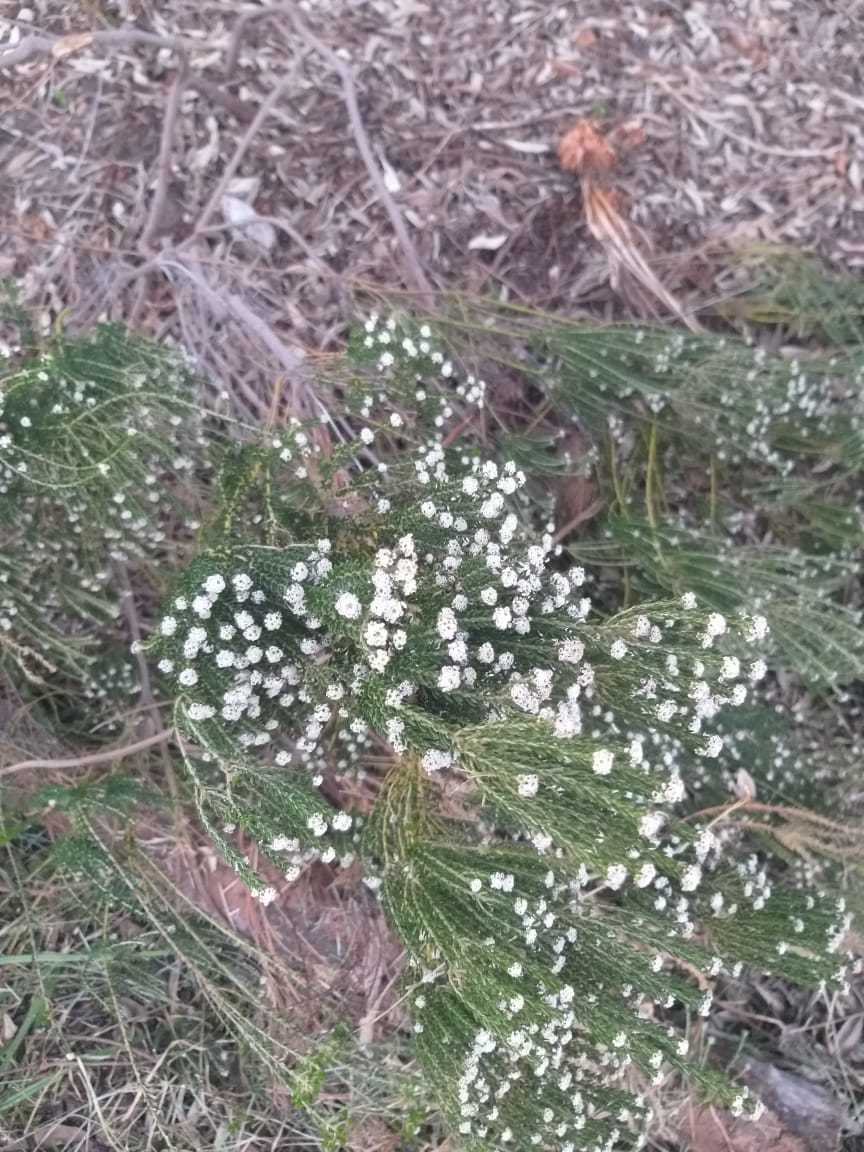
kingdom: Plantae
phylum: Tracheophyta
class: Magnoliopsida
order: Rosales
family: Rhamnaceae
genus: Phylica
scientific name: Phylica ericoides
